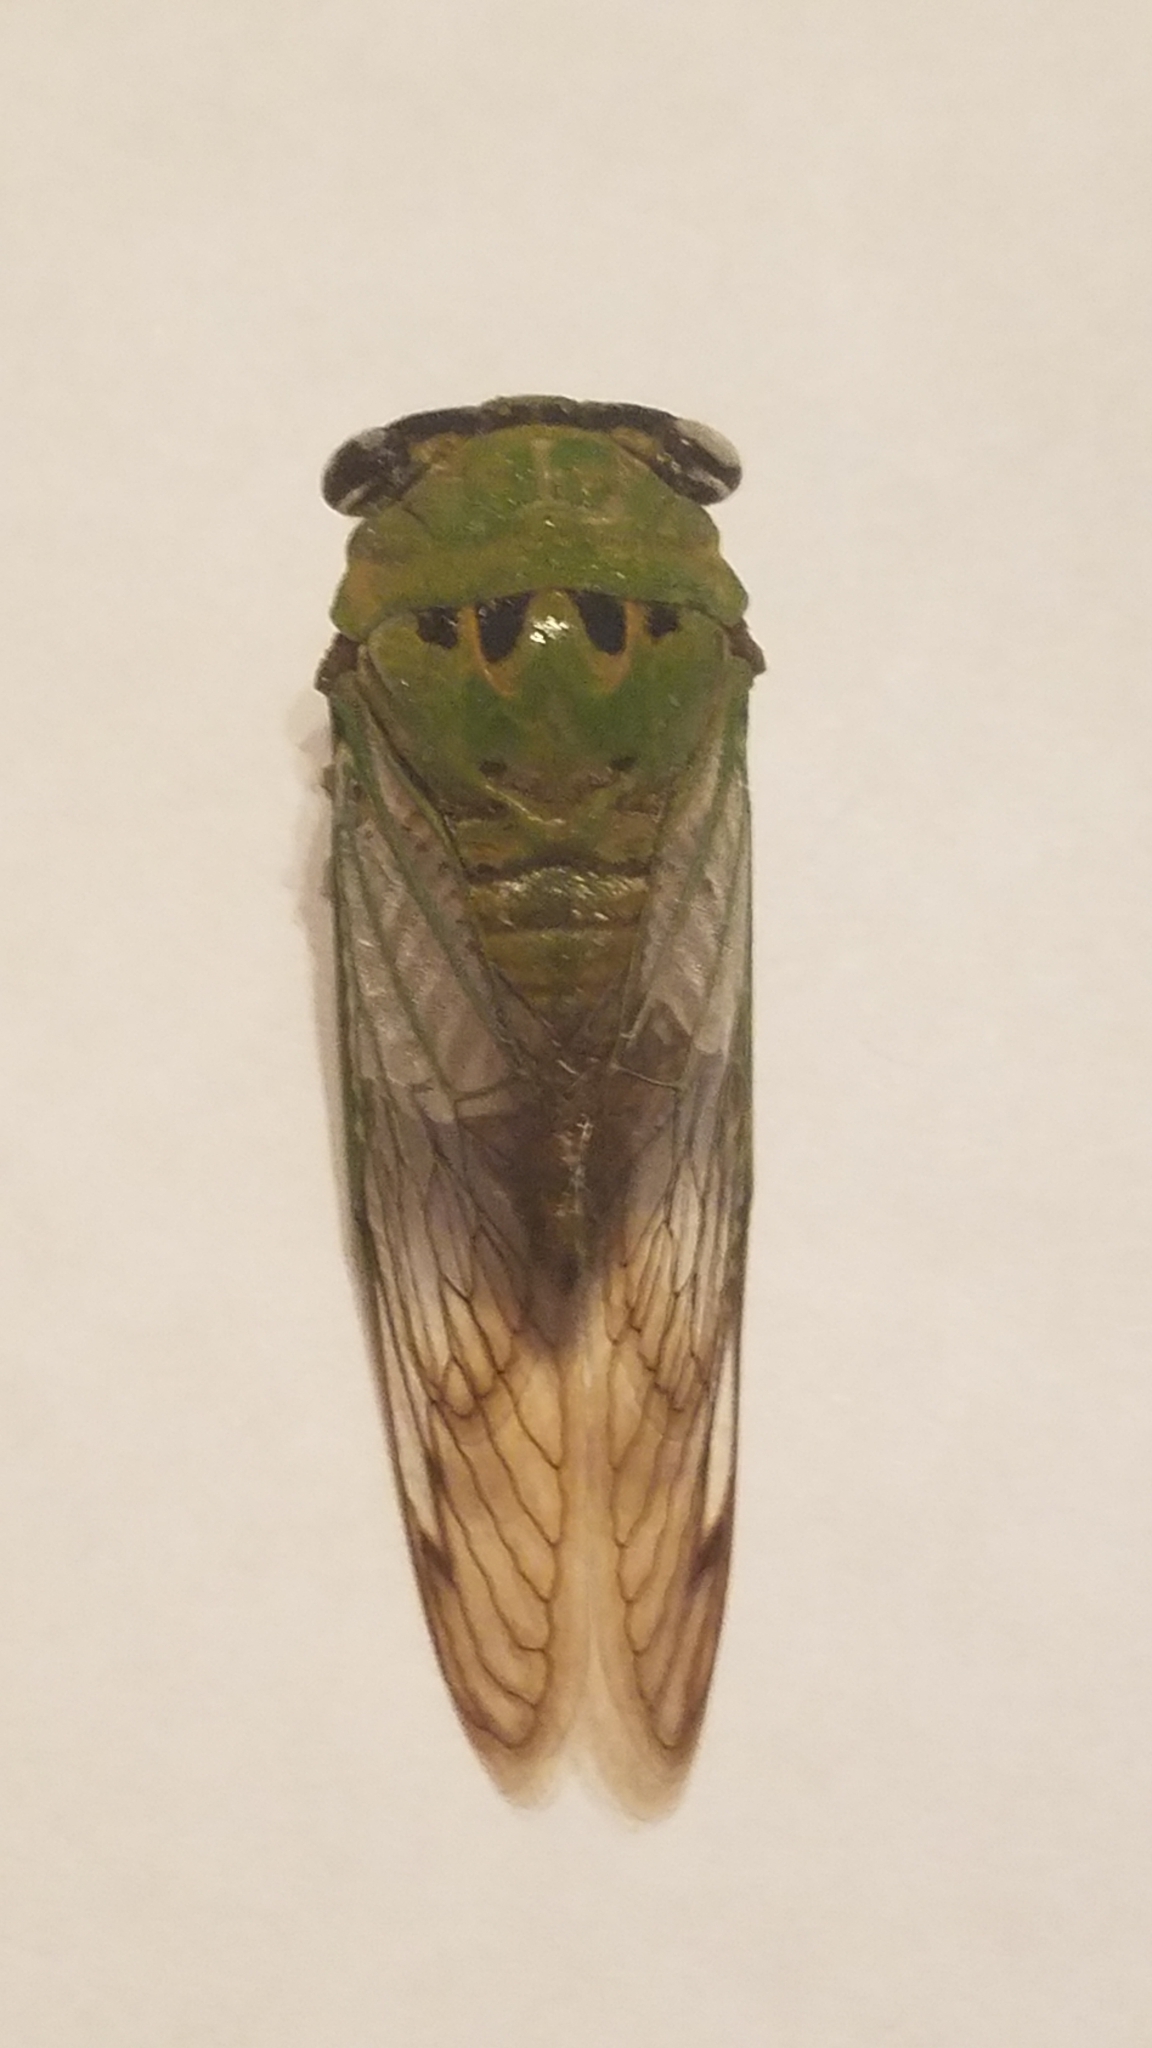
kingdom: Animalia
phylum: Arthropoda
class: Insecta
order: Hemiptera
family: Cicadidae
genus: Neotibicen
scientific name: Neotibicen superbus
